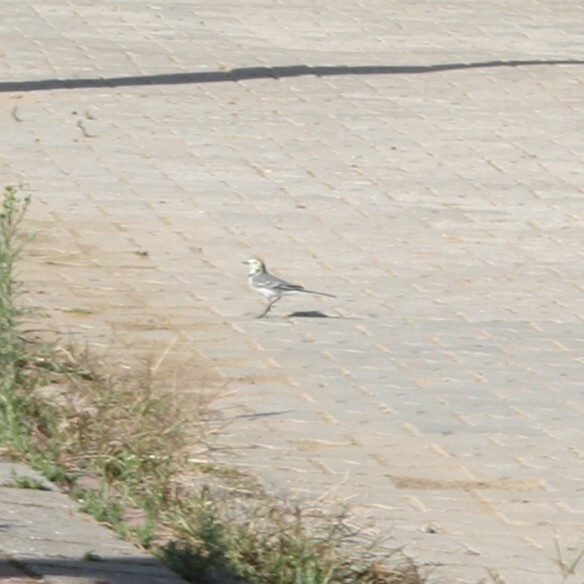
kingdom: Animalia
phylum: Chordata
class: Aves
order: Passeriformes
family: Motacillidae
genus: Motacilla
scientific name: Motacilla alba
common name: White wagtail
